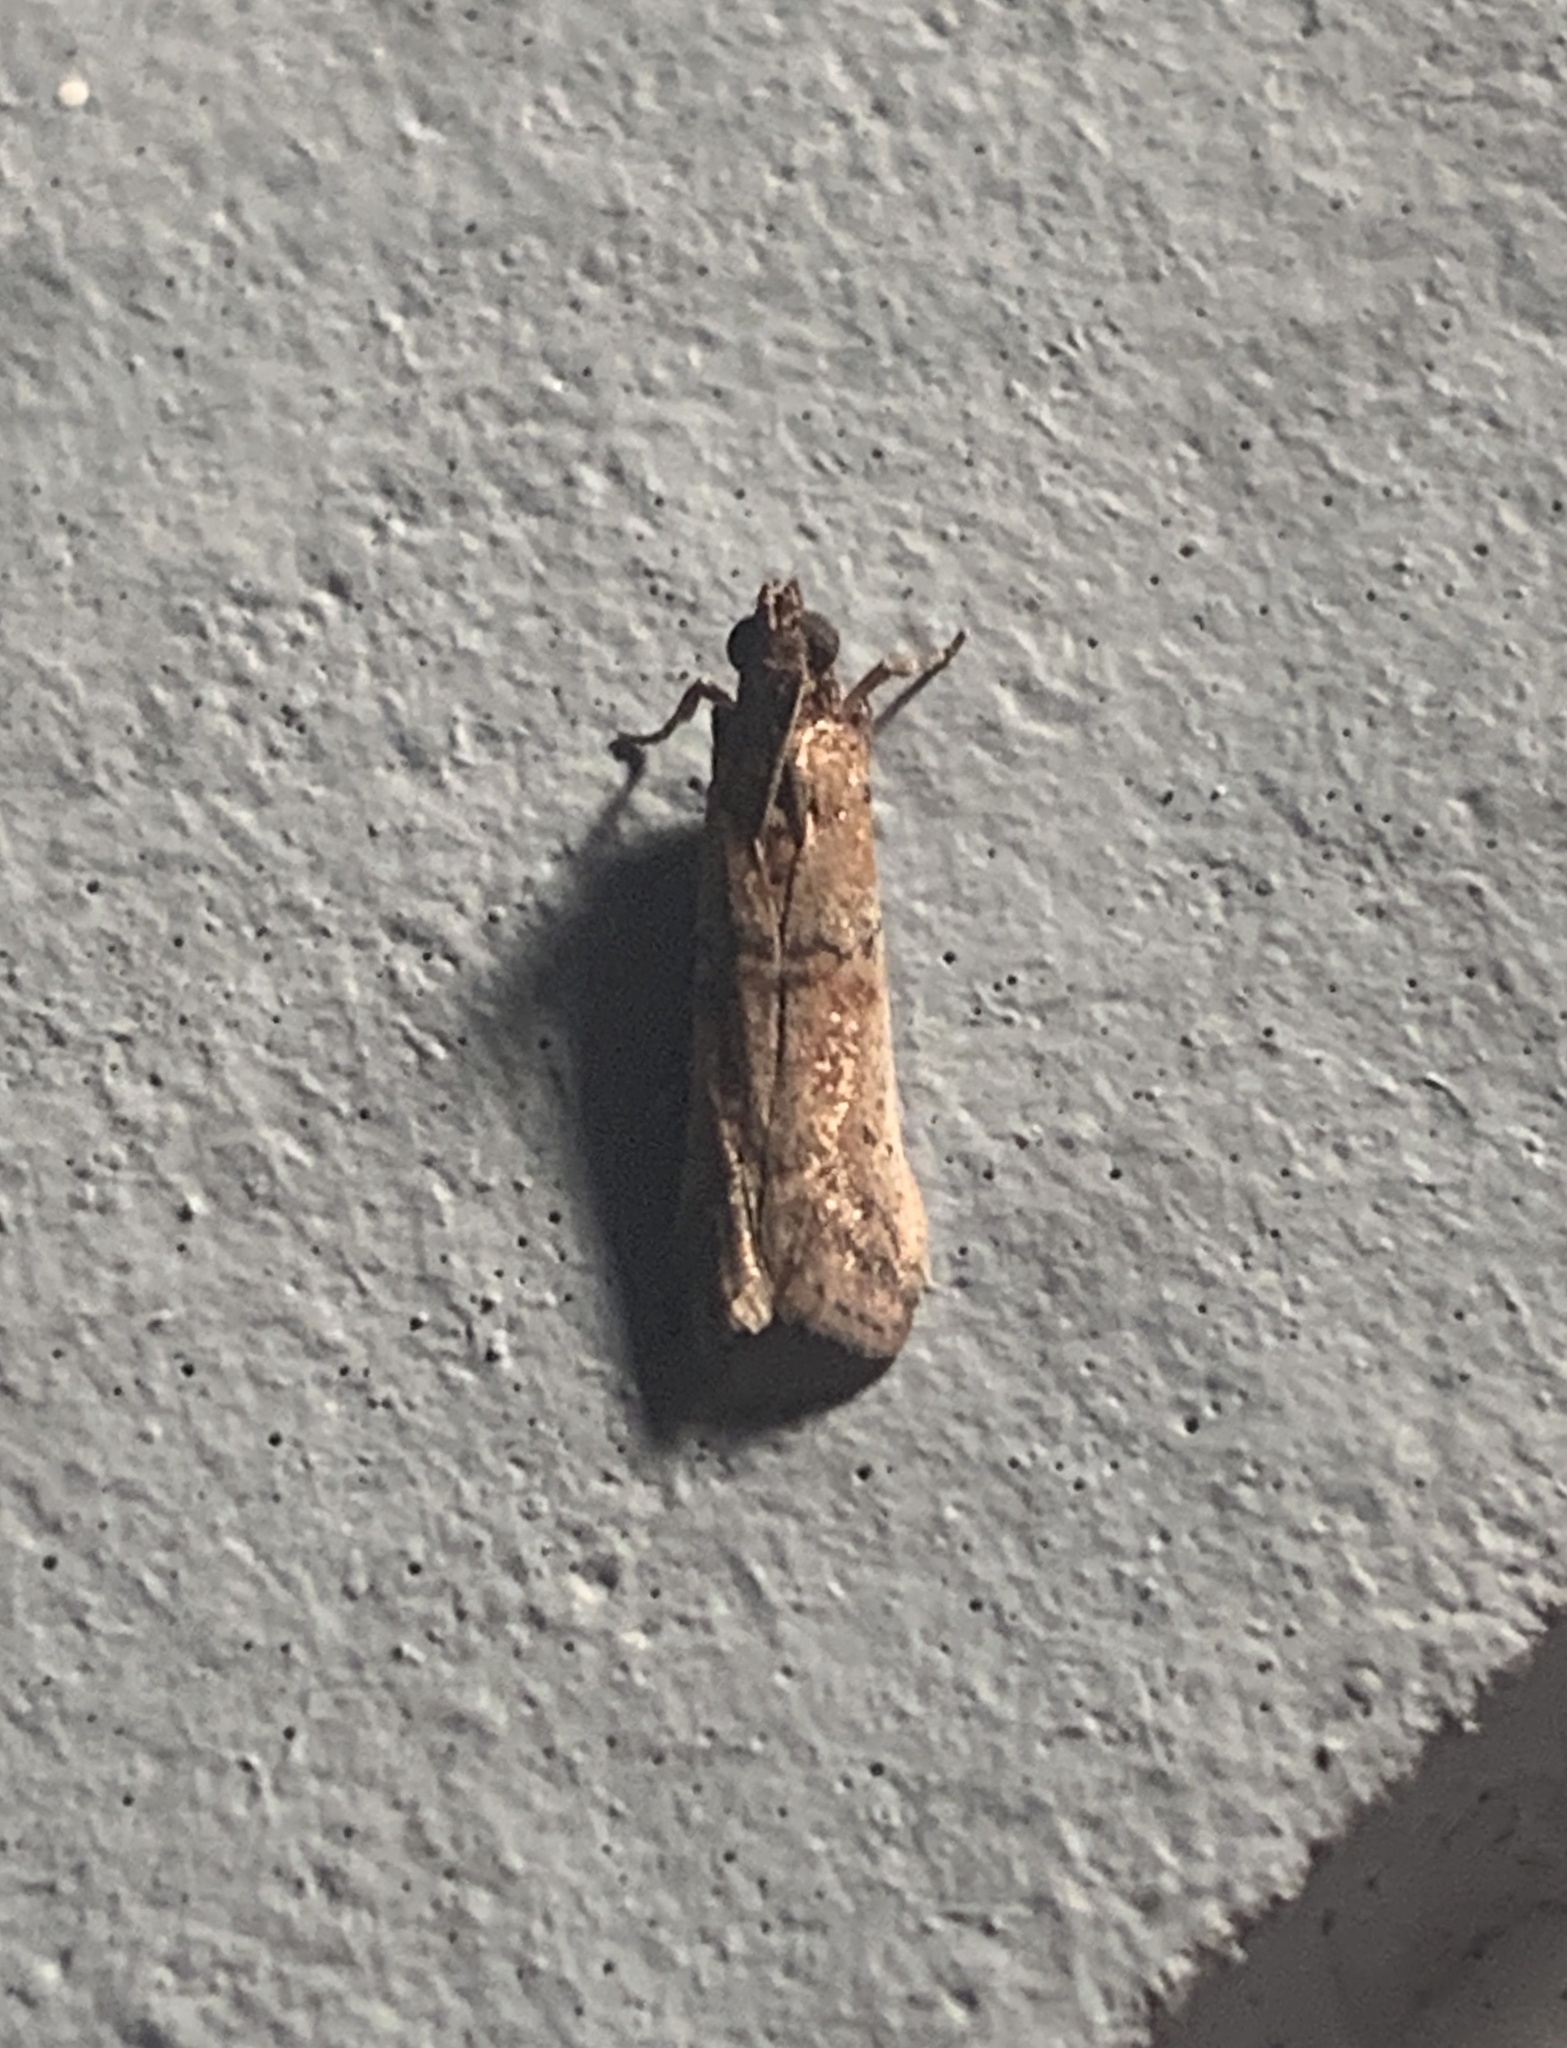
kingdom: Animalia
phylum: Arthropoda
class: Insecta
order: Lepidoptera
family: Pyralidae
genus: Atheloca
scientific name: Atheloca subrufella
